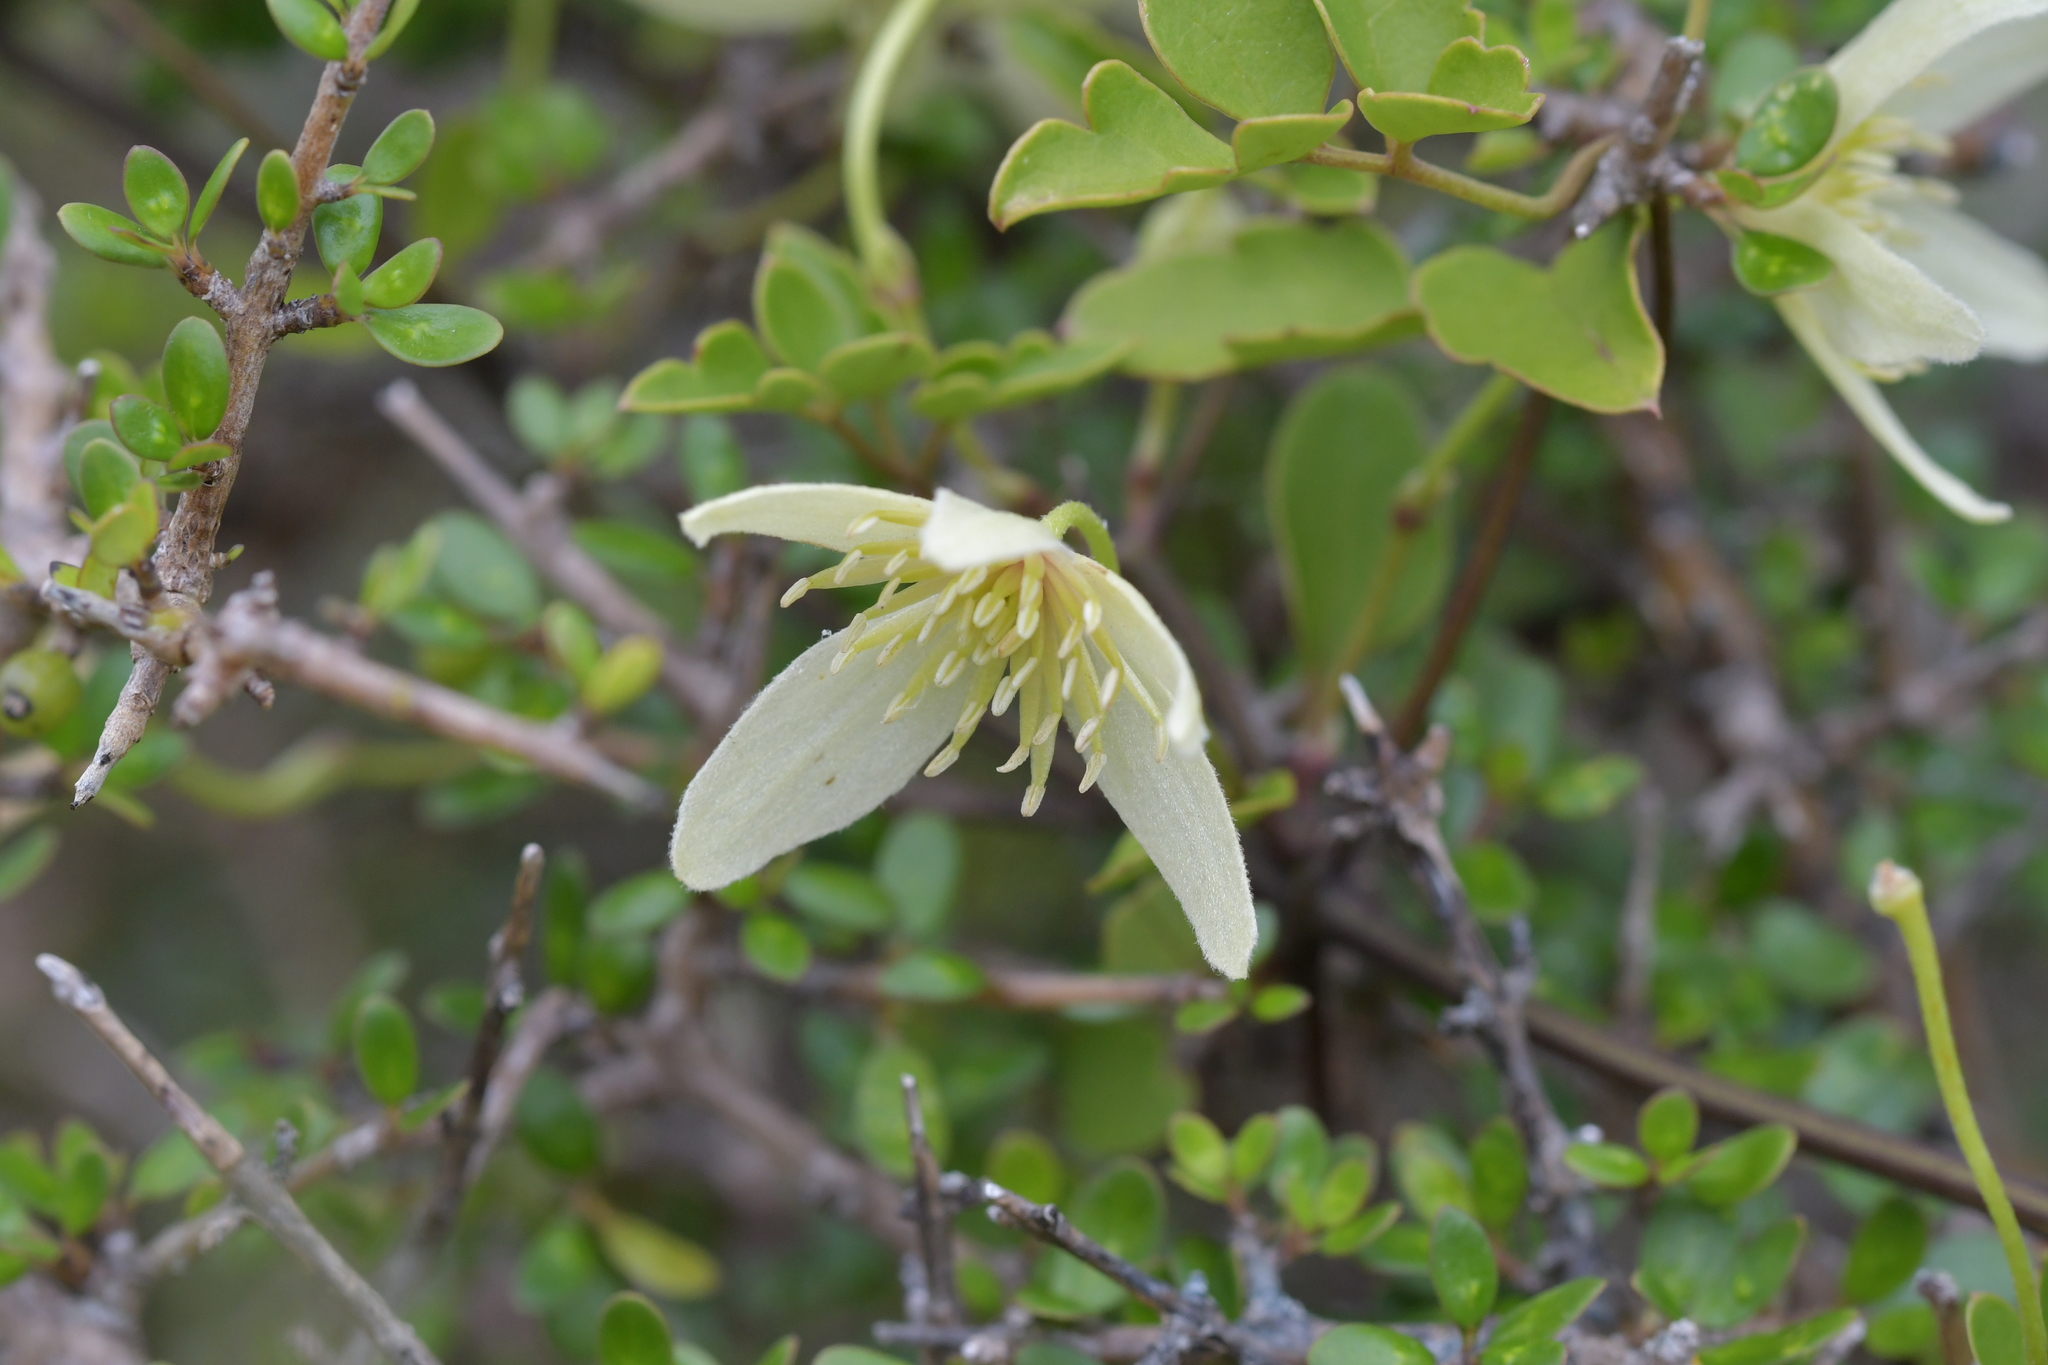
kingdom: Plantae
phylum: Tracheophyta
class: Magnoliopsida
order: Ranunculales
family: Ranunculaceae
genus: Clematis
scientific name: Clematis forsteri
